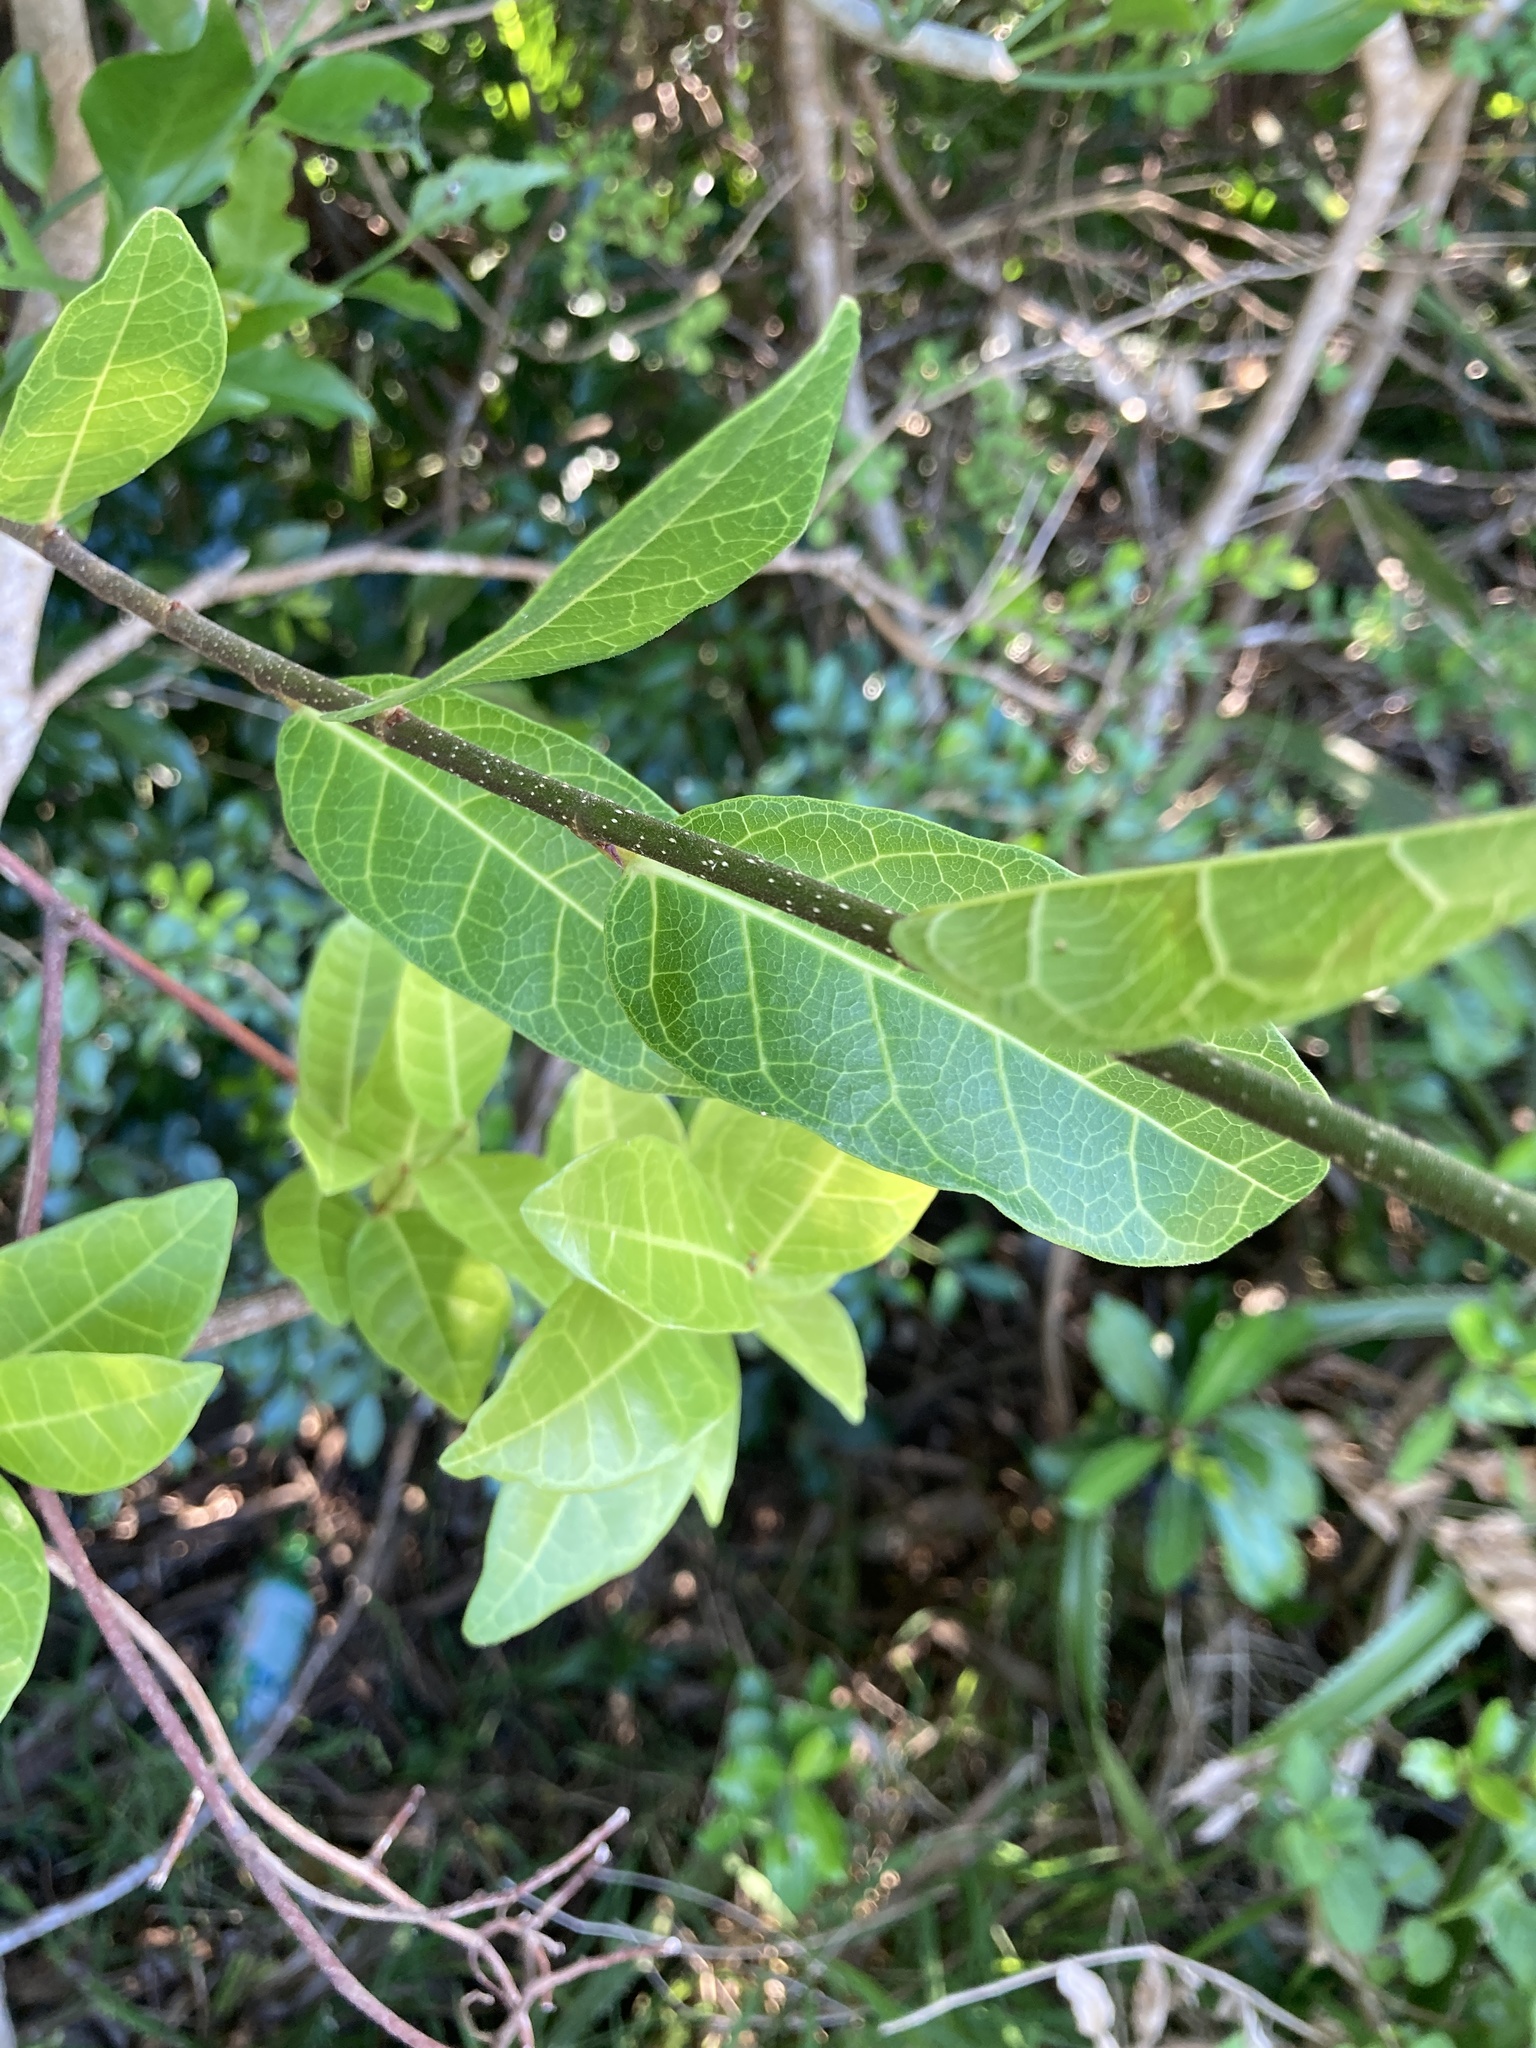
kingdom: Plantae
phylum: Tracheophyta
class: Magnoliopsida
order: Rosales
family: Moraceae
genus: Malaisia
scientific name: Malaisia scandens
